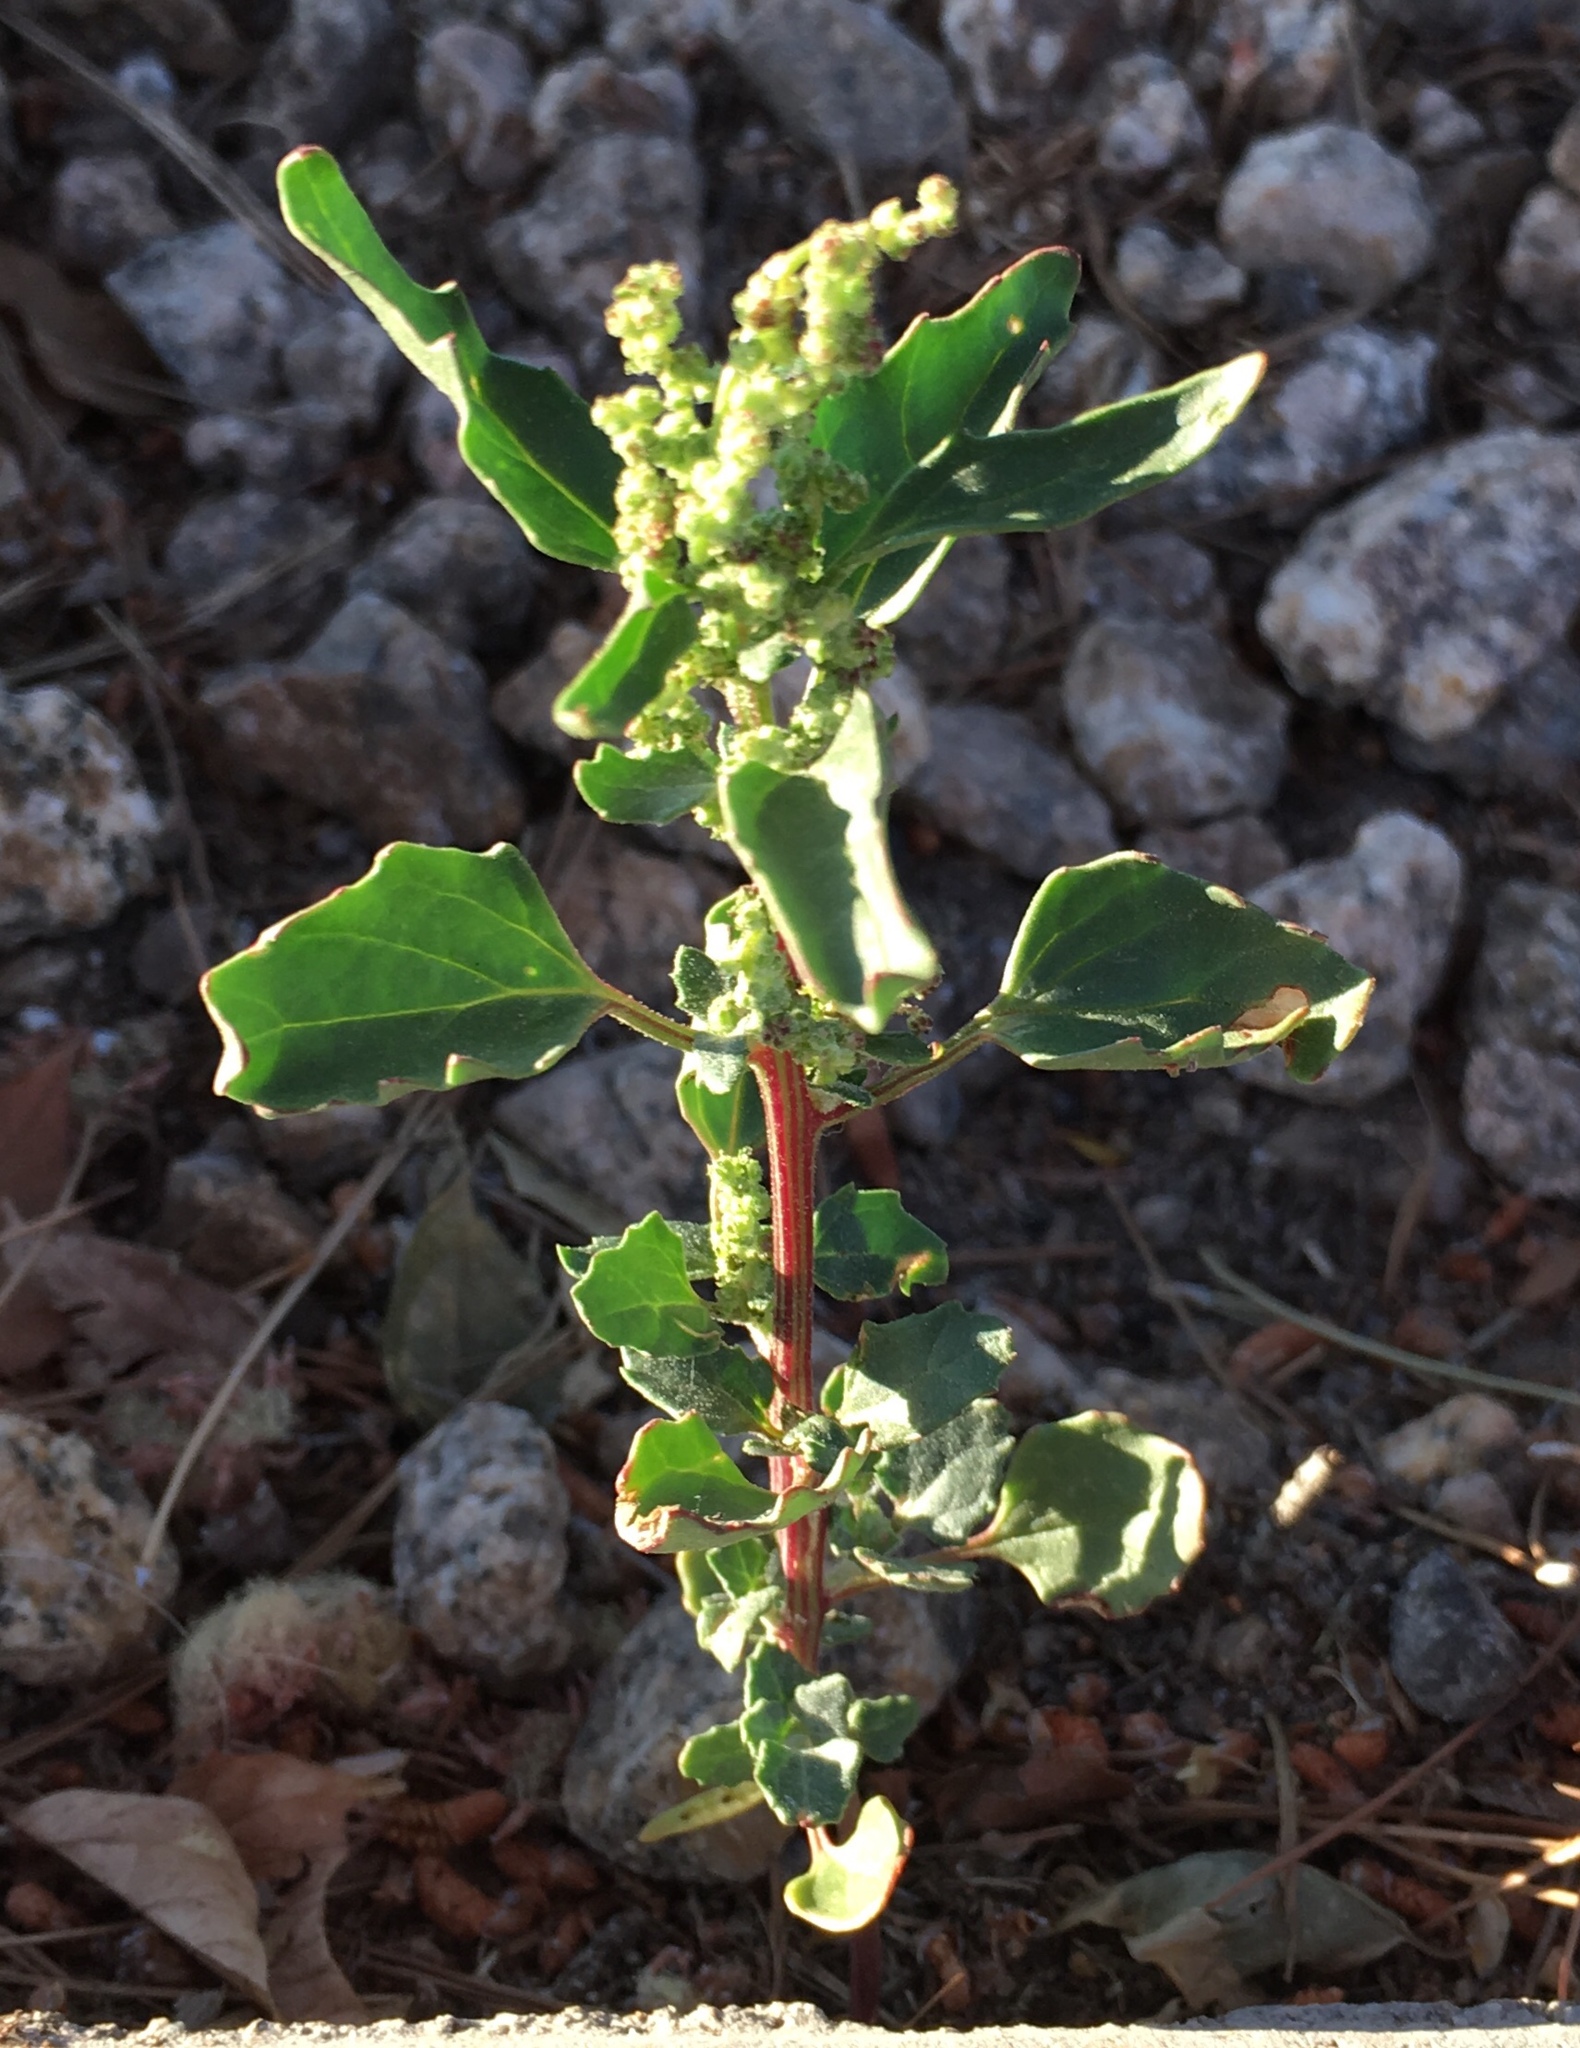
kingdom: Plantae
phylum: Tracheophyta
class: Magnoliopsida
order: Caryophyllales
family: Amaranthaceae
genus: Chenopodiastrum
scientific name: Chenopodiastrum murale
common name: Sowbane
